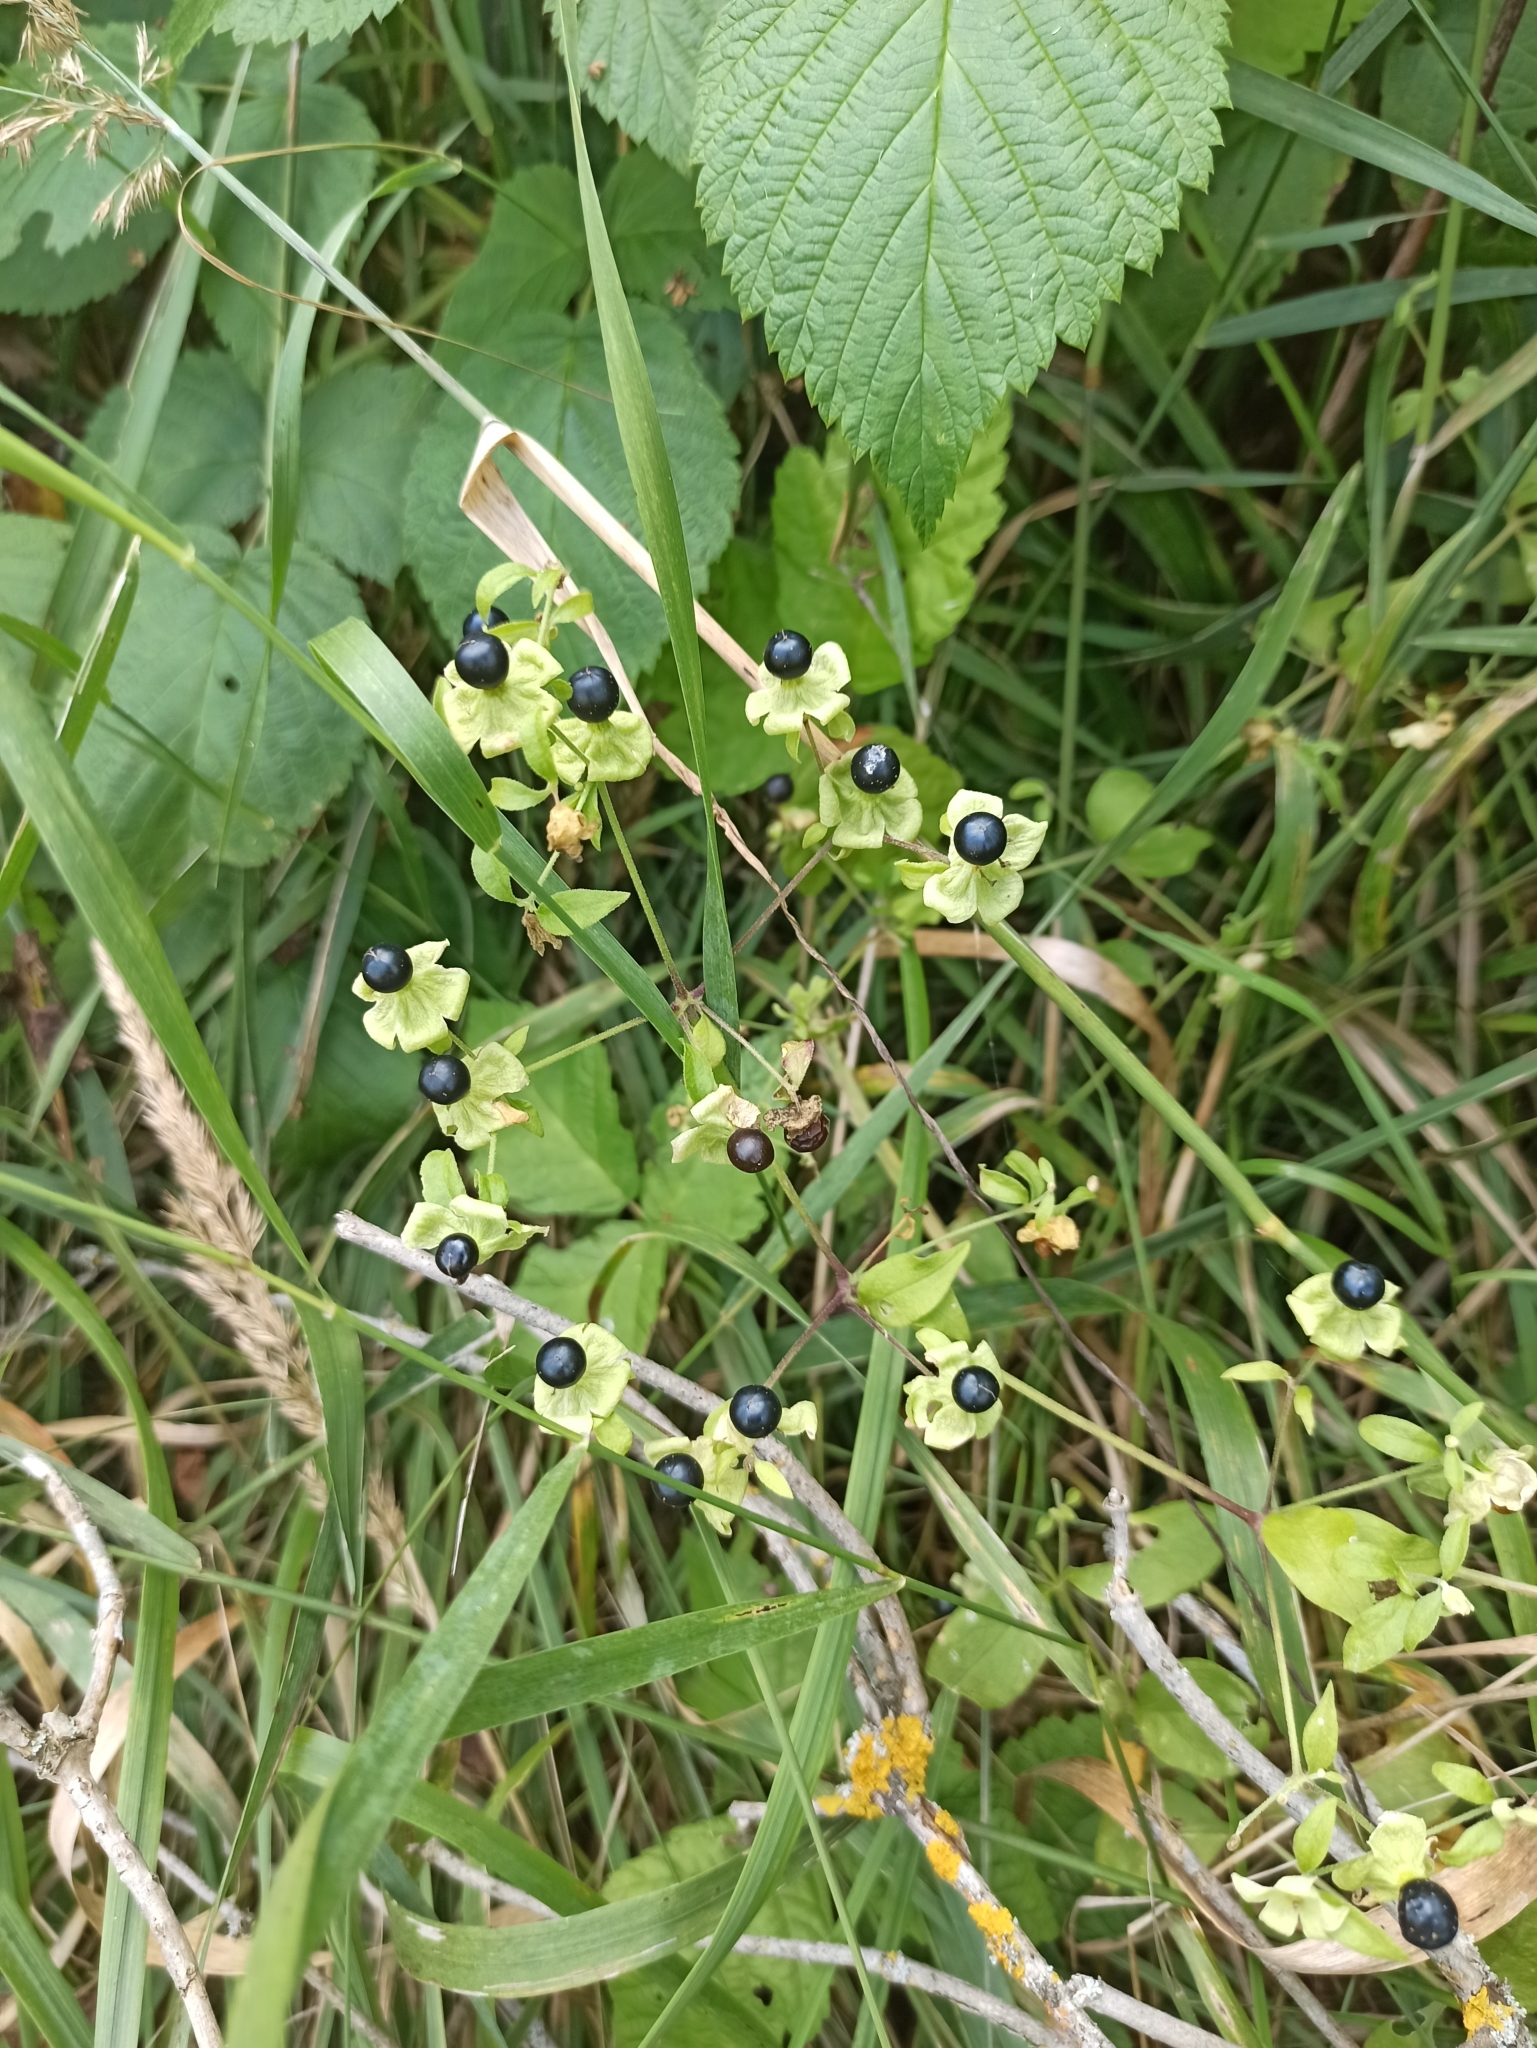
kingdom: Plantae
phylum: Tracheophyta
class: Magnoliopsida
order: Caryophyllales
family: Caryophyllaceae
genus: Silene
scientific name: Silene baccifera
